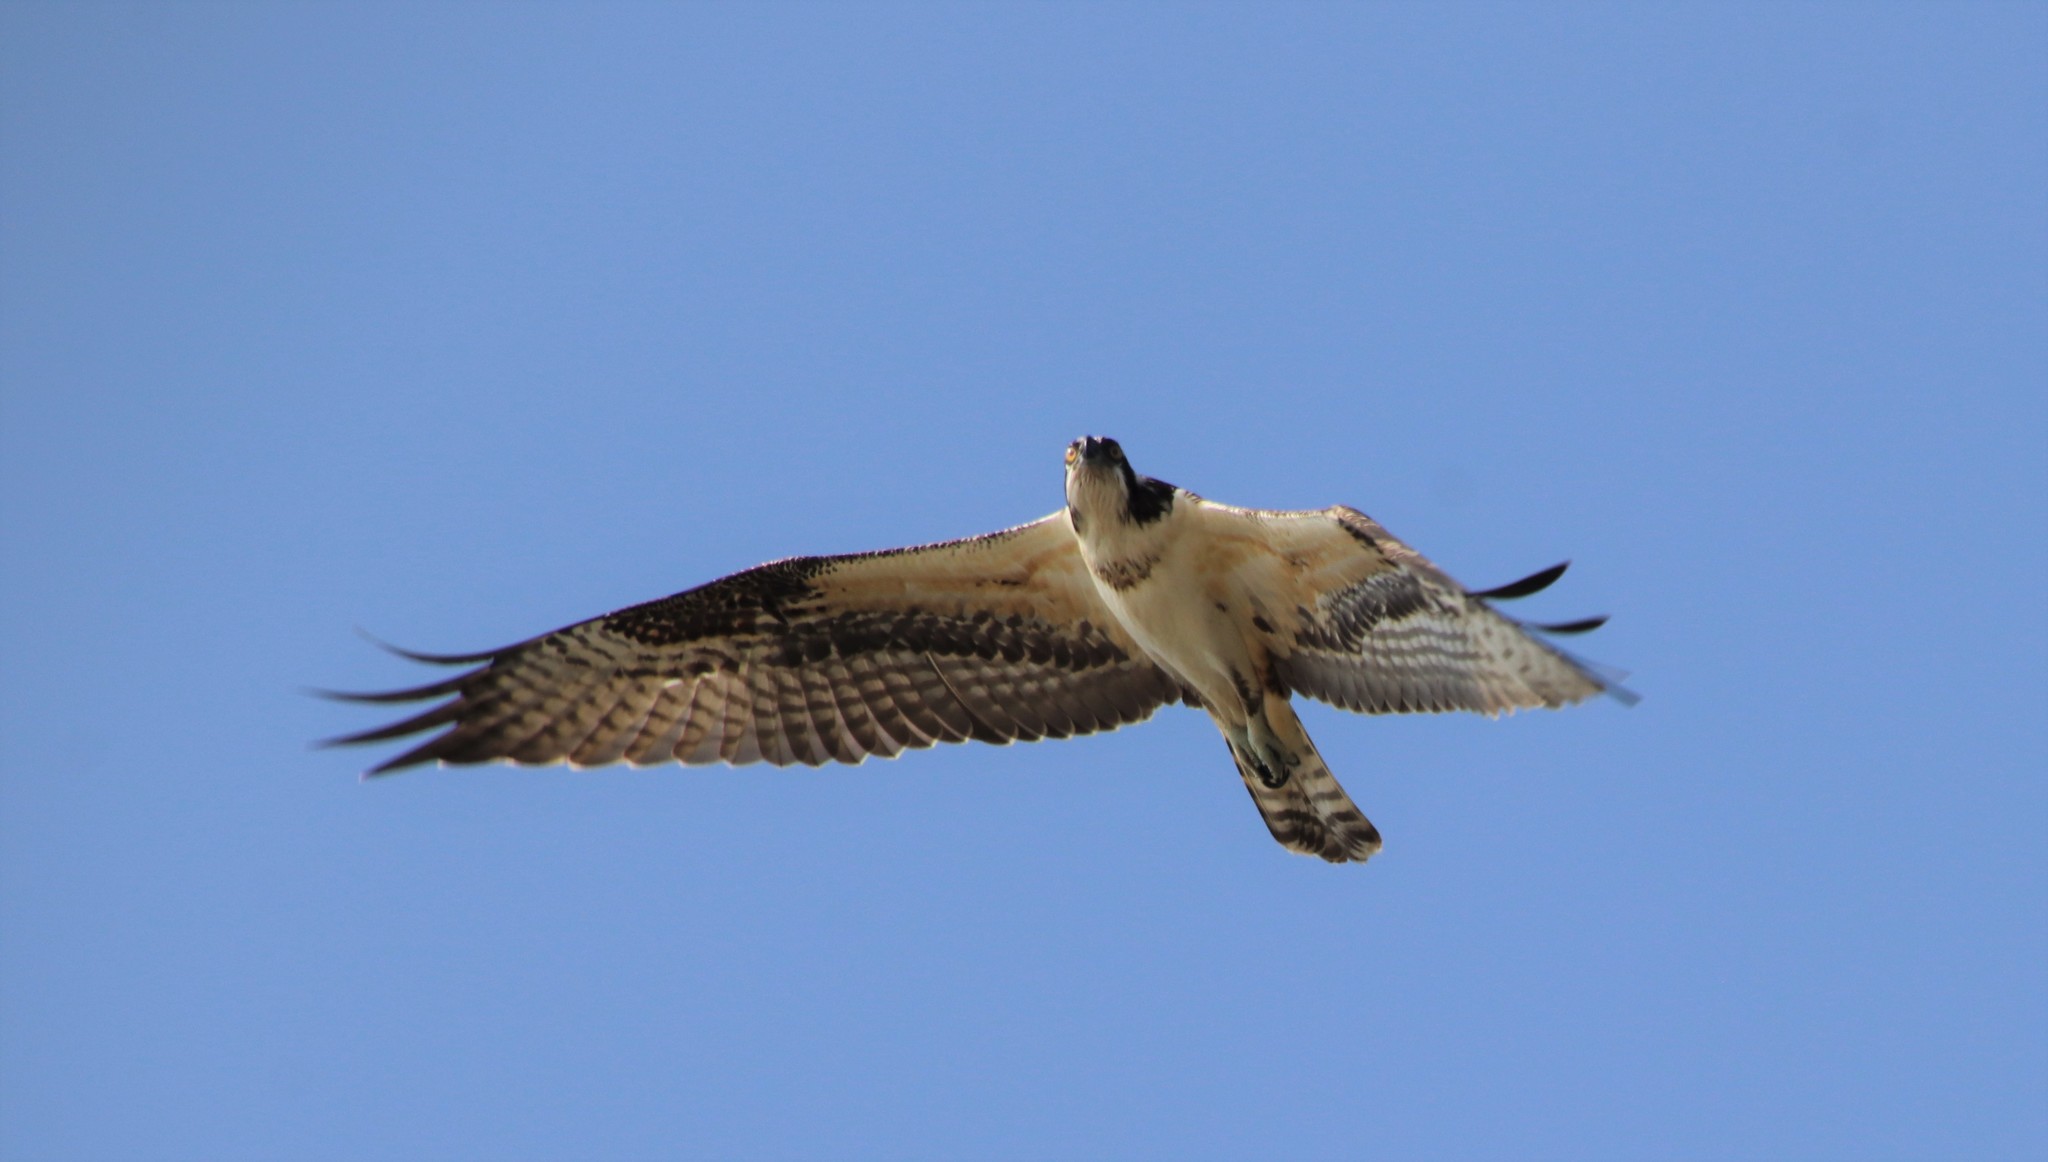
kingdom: Animalia
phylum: Chordata
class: Aves
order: Accipitriformes
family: Pandionidae
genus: Pandion
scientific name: Pandion haliaetus
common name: Osprey
